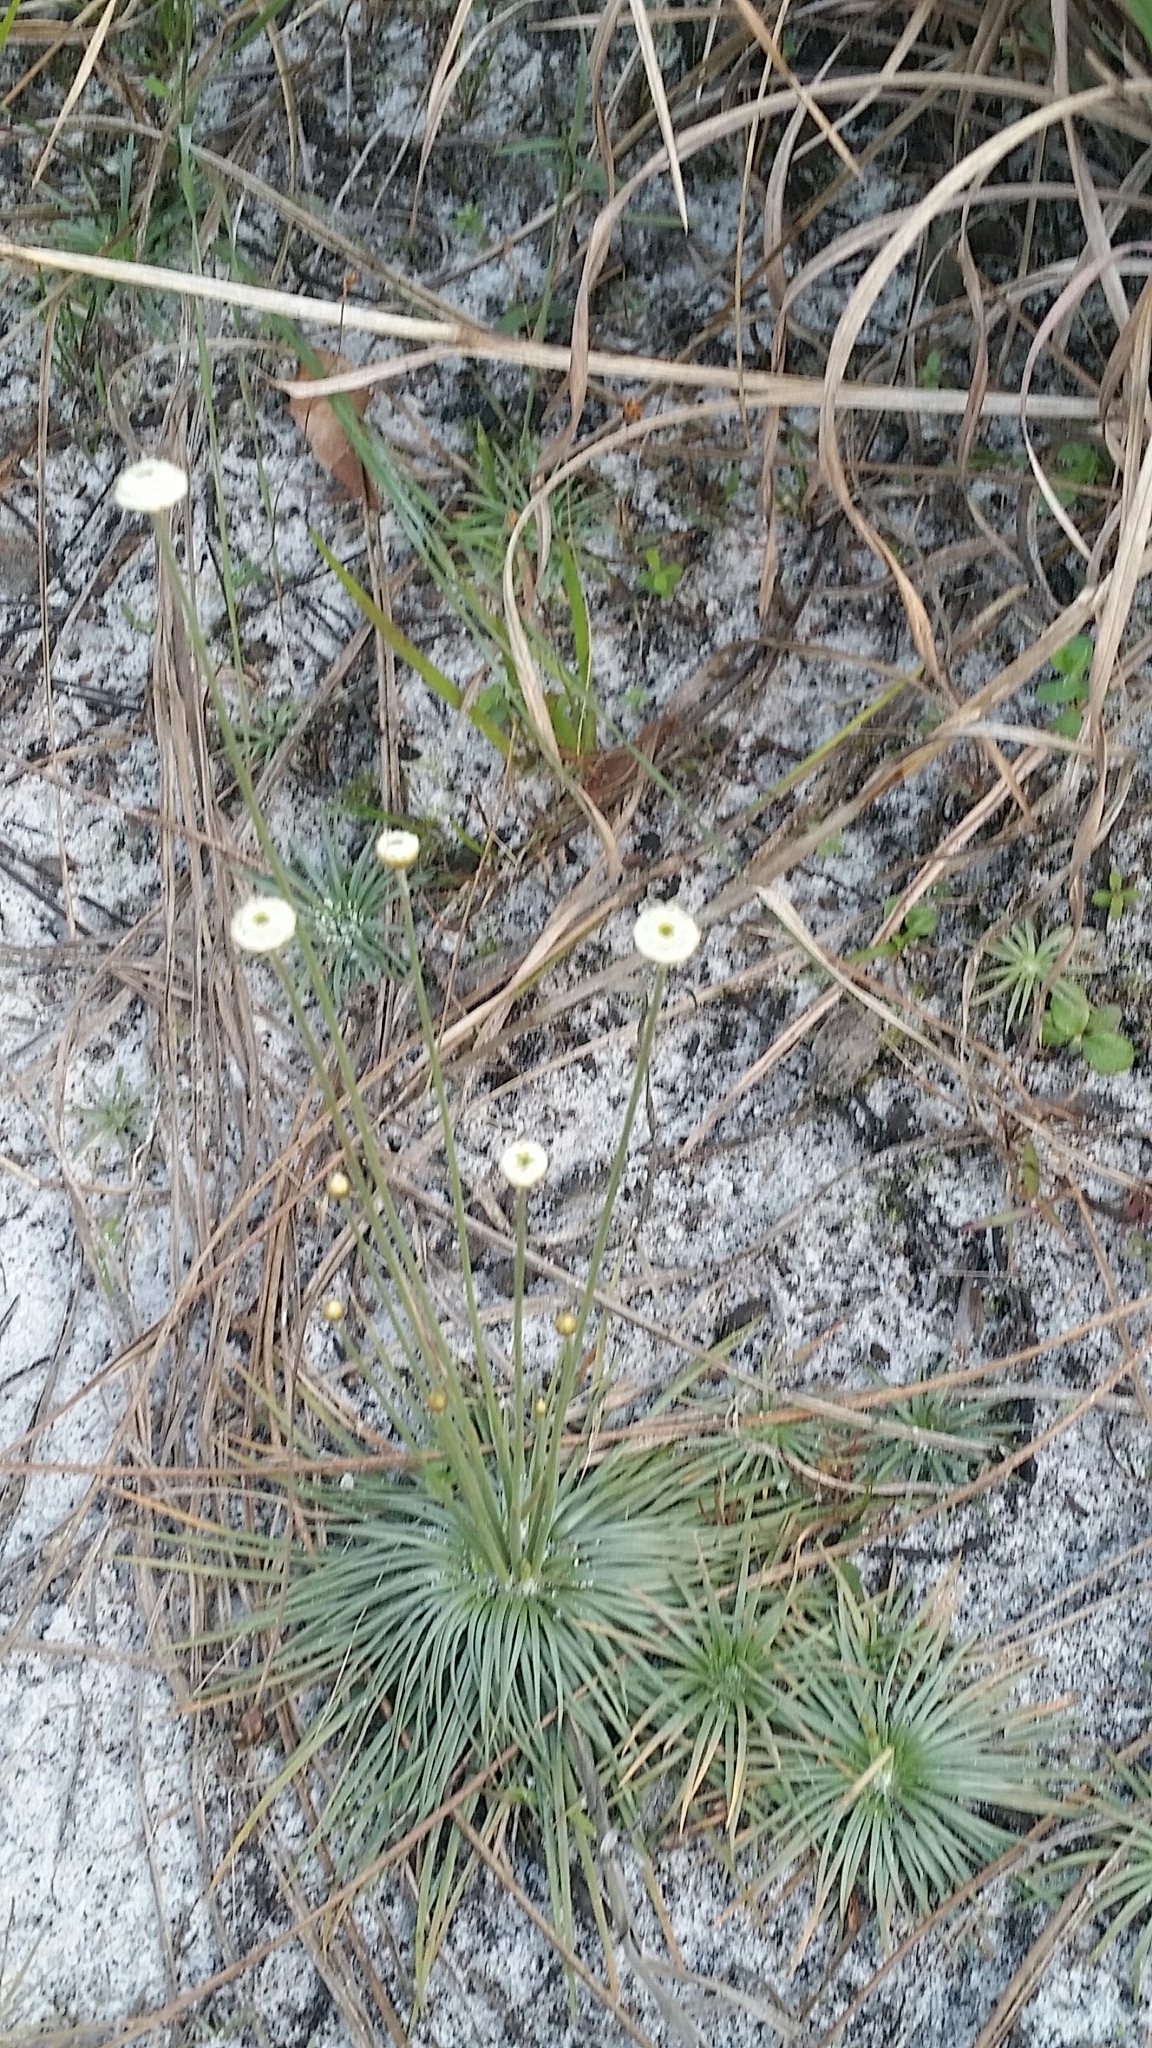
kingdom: Plantae
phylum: Tracheophyta
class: Liliopsida
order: Poales
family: Eriocaulaceae
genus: Syngonanthus
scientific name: Syngonanthus flavidulus
